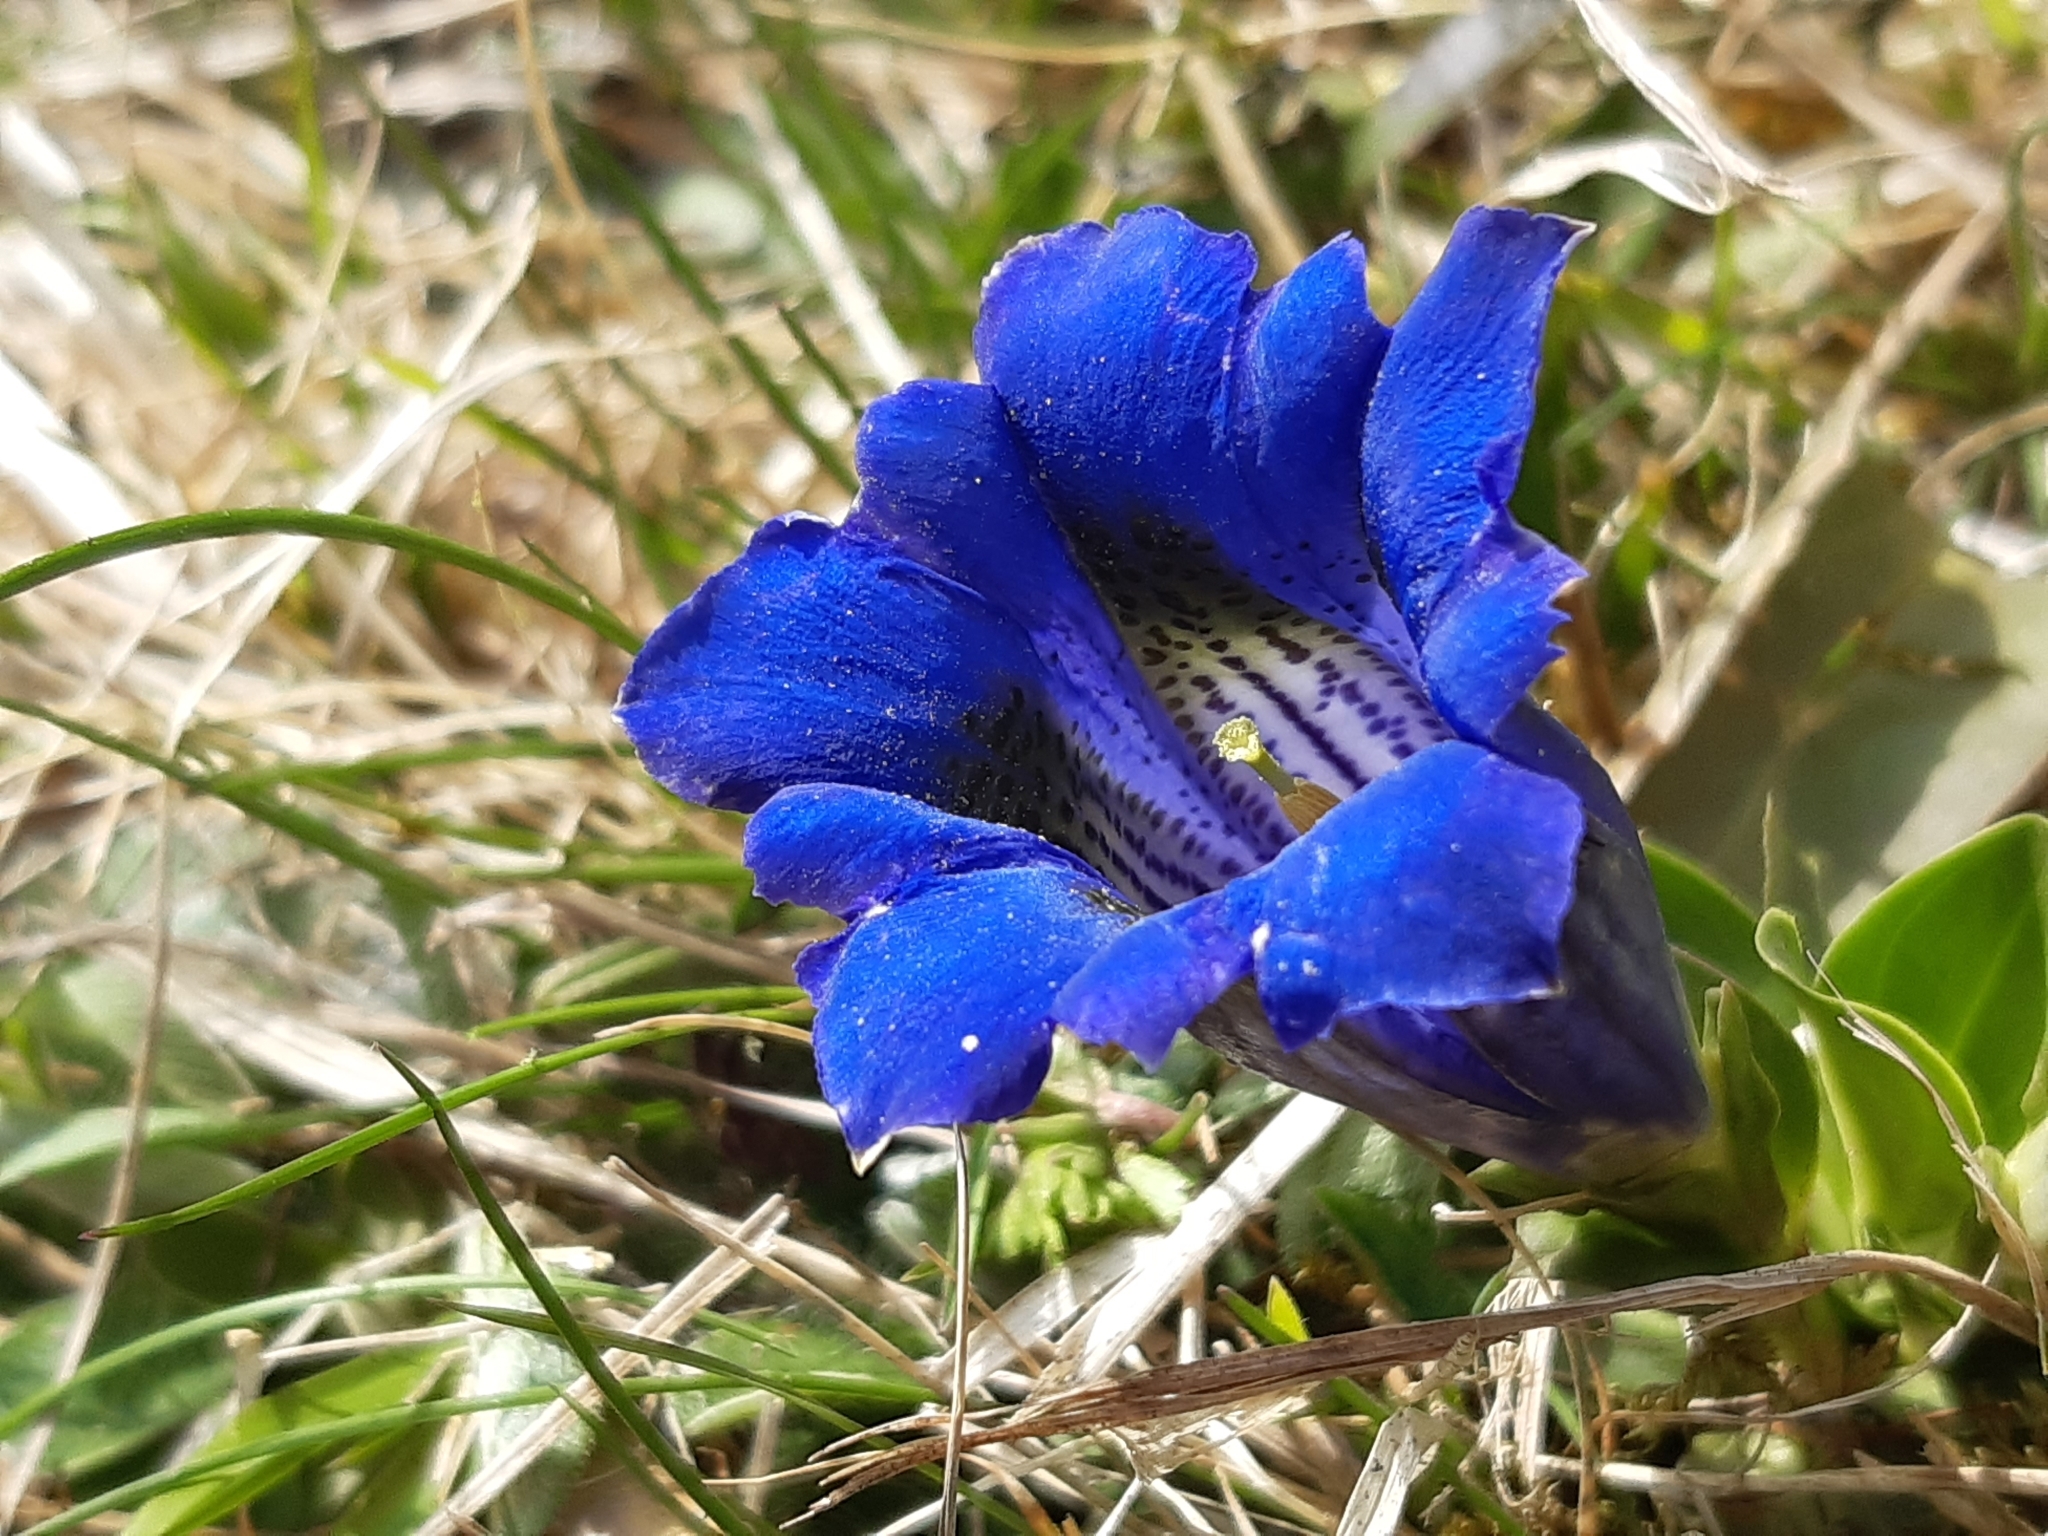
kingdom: Plantae
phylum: Tracheophyta
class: Magnoliopsida
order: Gentianales
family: Gentianaceae
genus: Gentiana
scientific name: Gentiana acaulis
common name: Trumpet gentian
